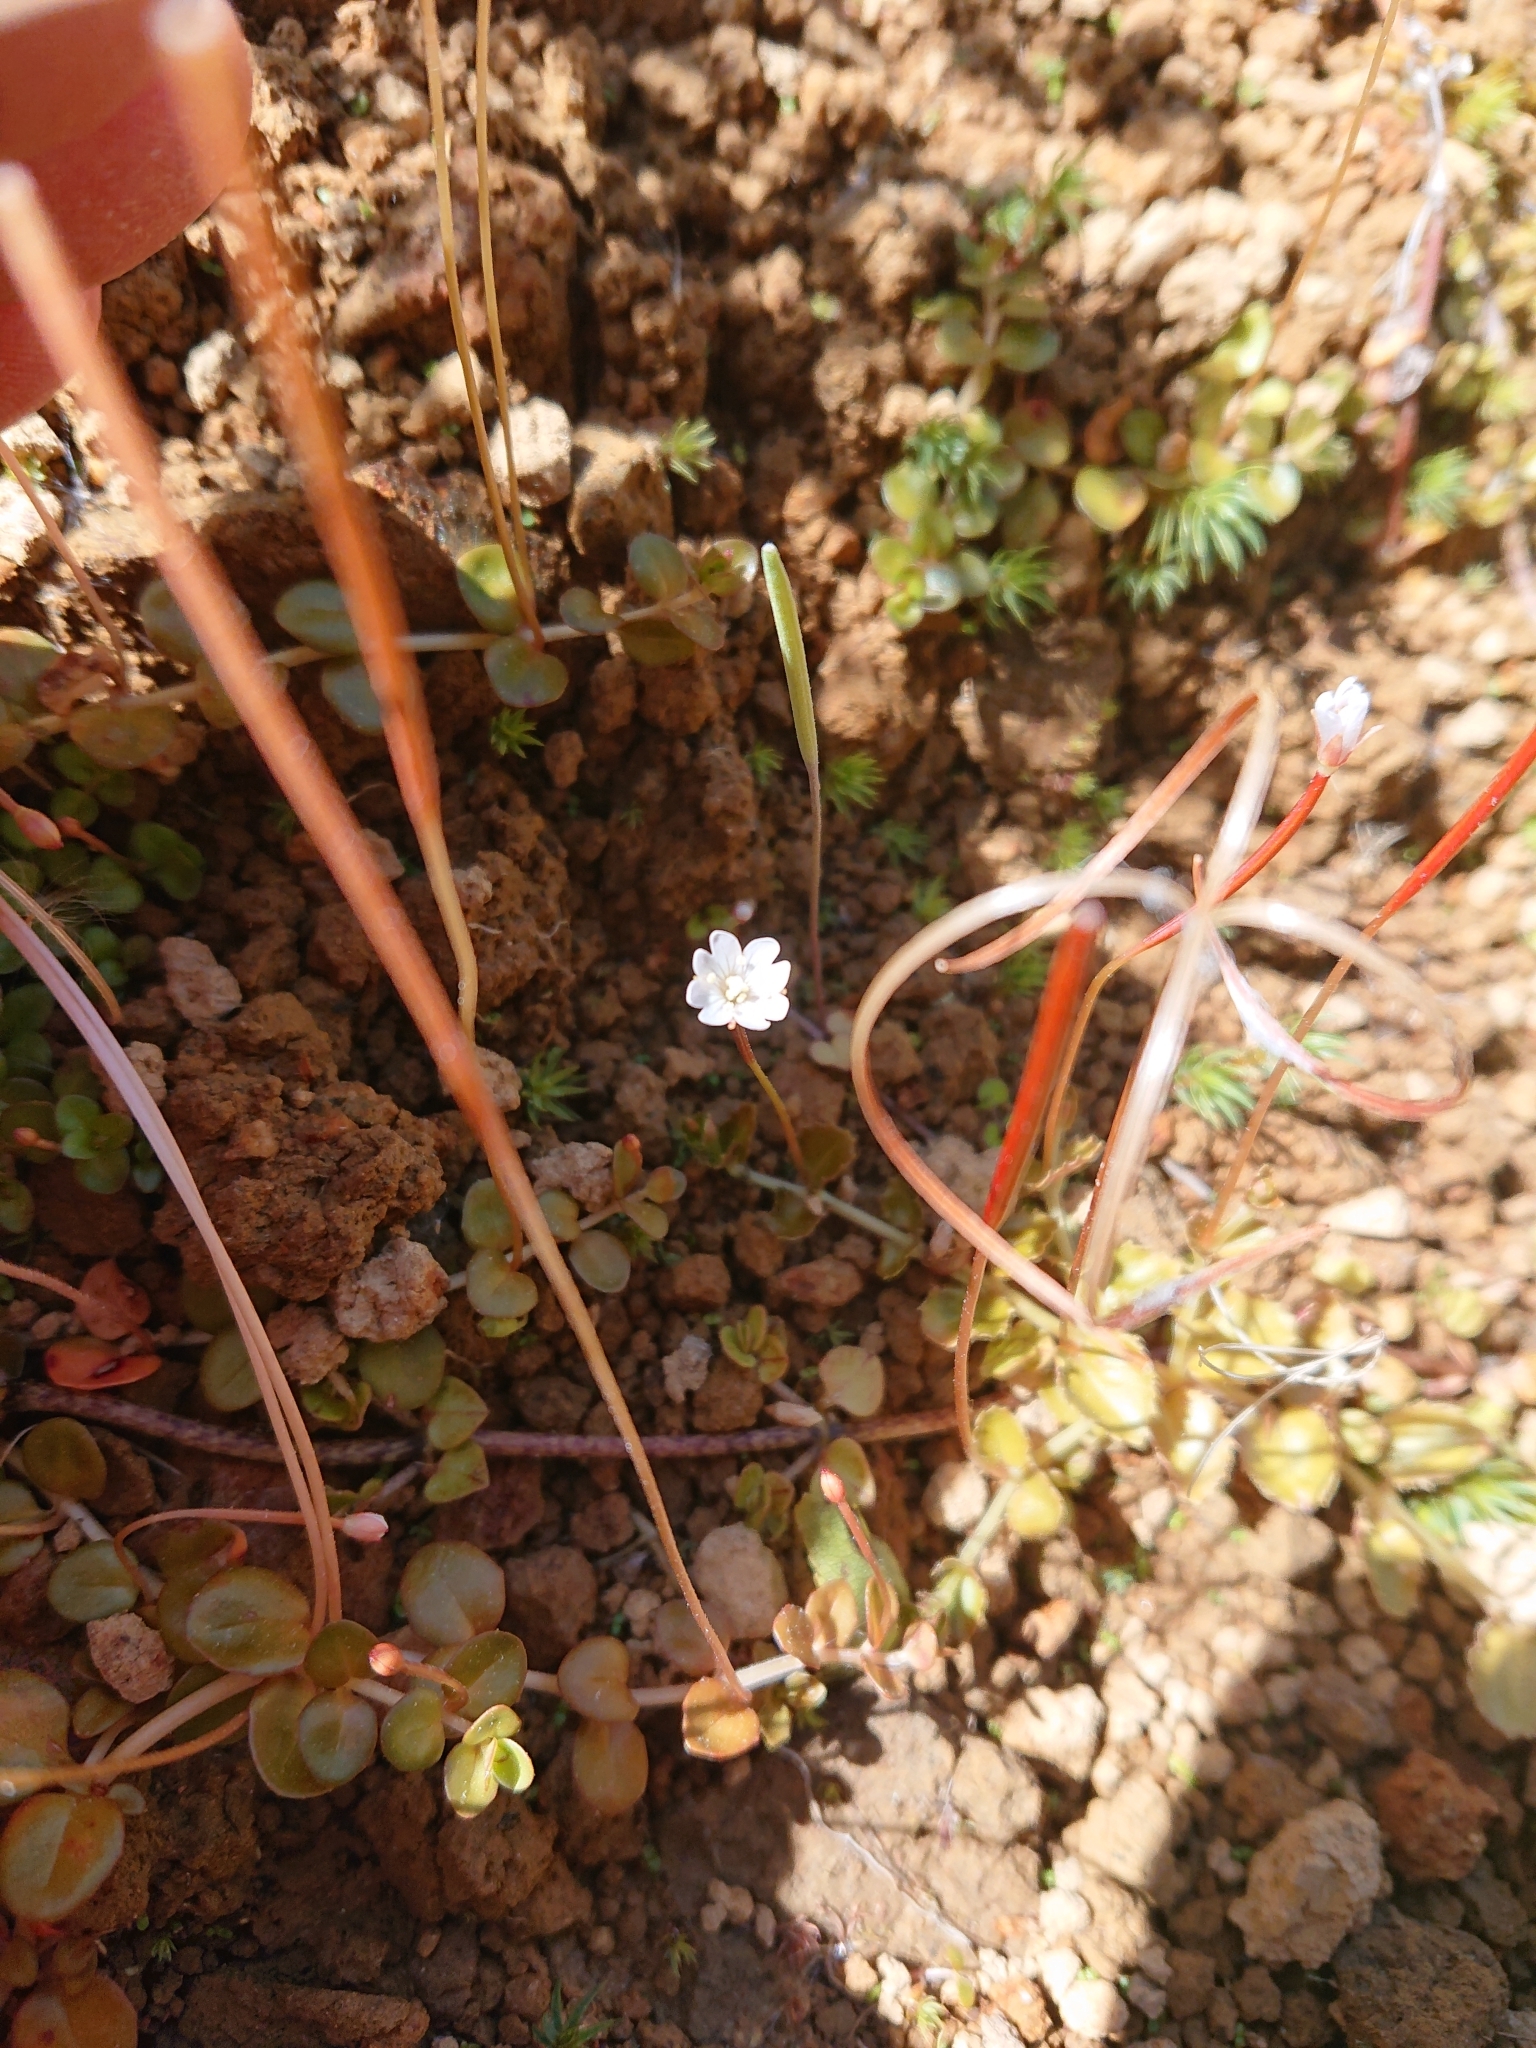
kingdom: Plantae
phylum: Tracheophyta
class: Magnoliopsida
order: Myrtales
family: Onagraceae
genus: Epilobium
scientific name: Epilobium brunnescens
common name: New zealand willowherb
